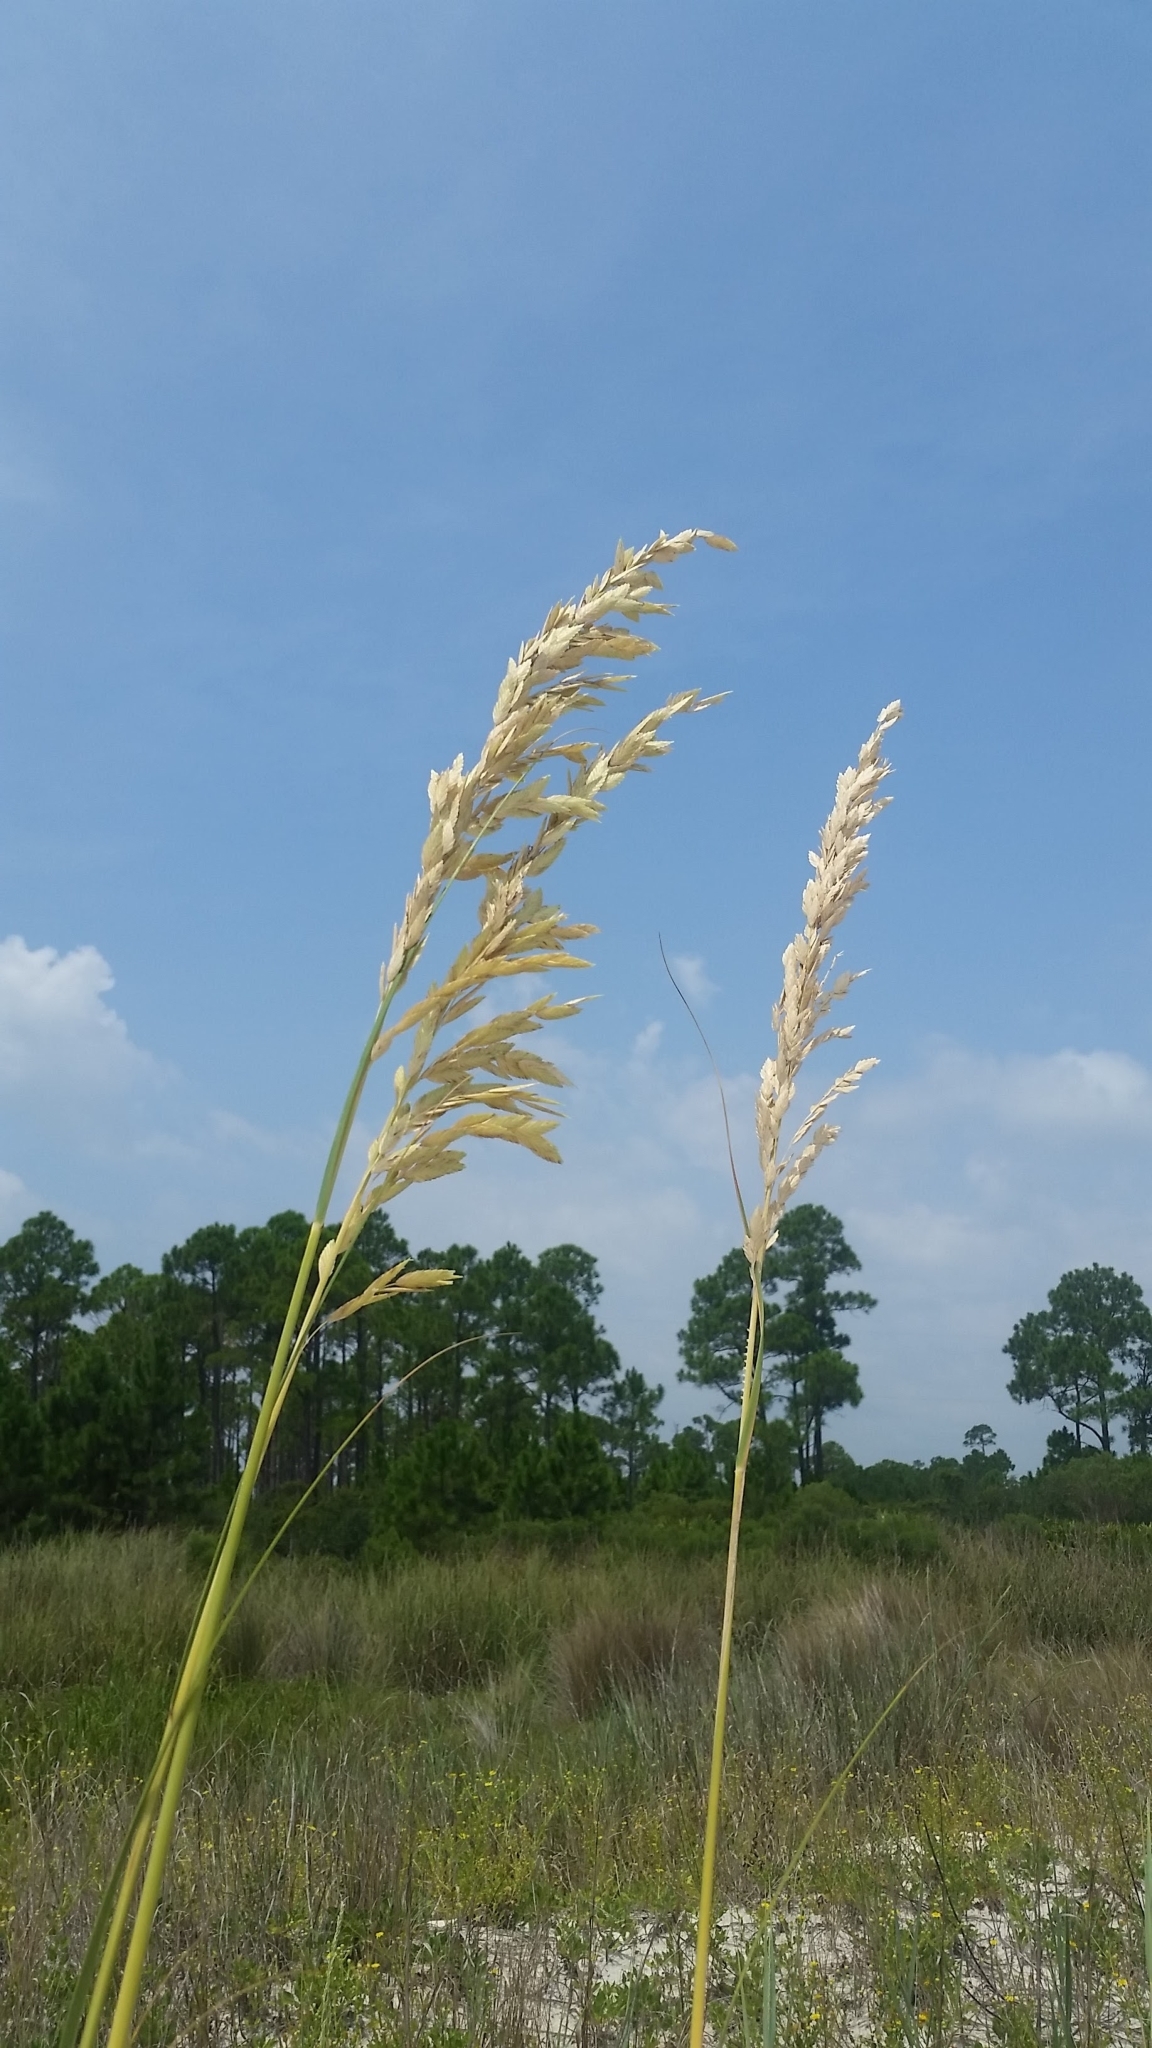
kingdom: Plantae
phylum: Tracheophyta
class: Liliopsida
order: Poales
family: Poaceae
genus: Uniola
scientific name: Uniola paniculata
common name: Seaside-oats
